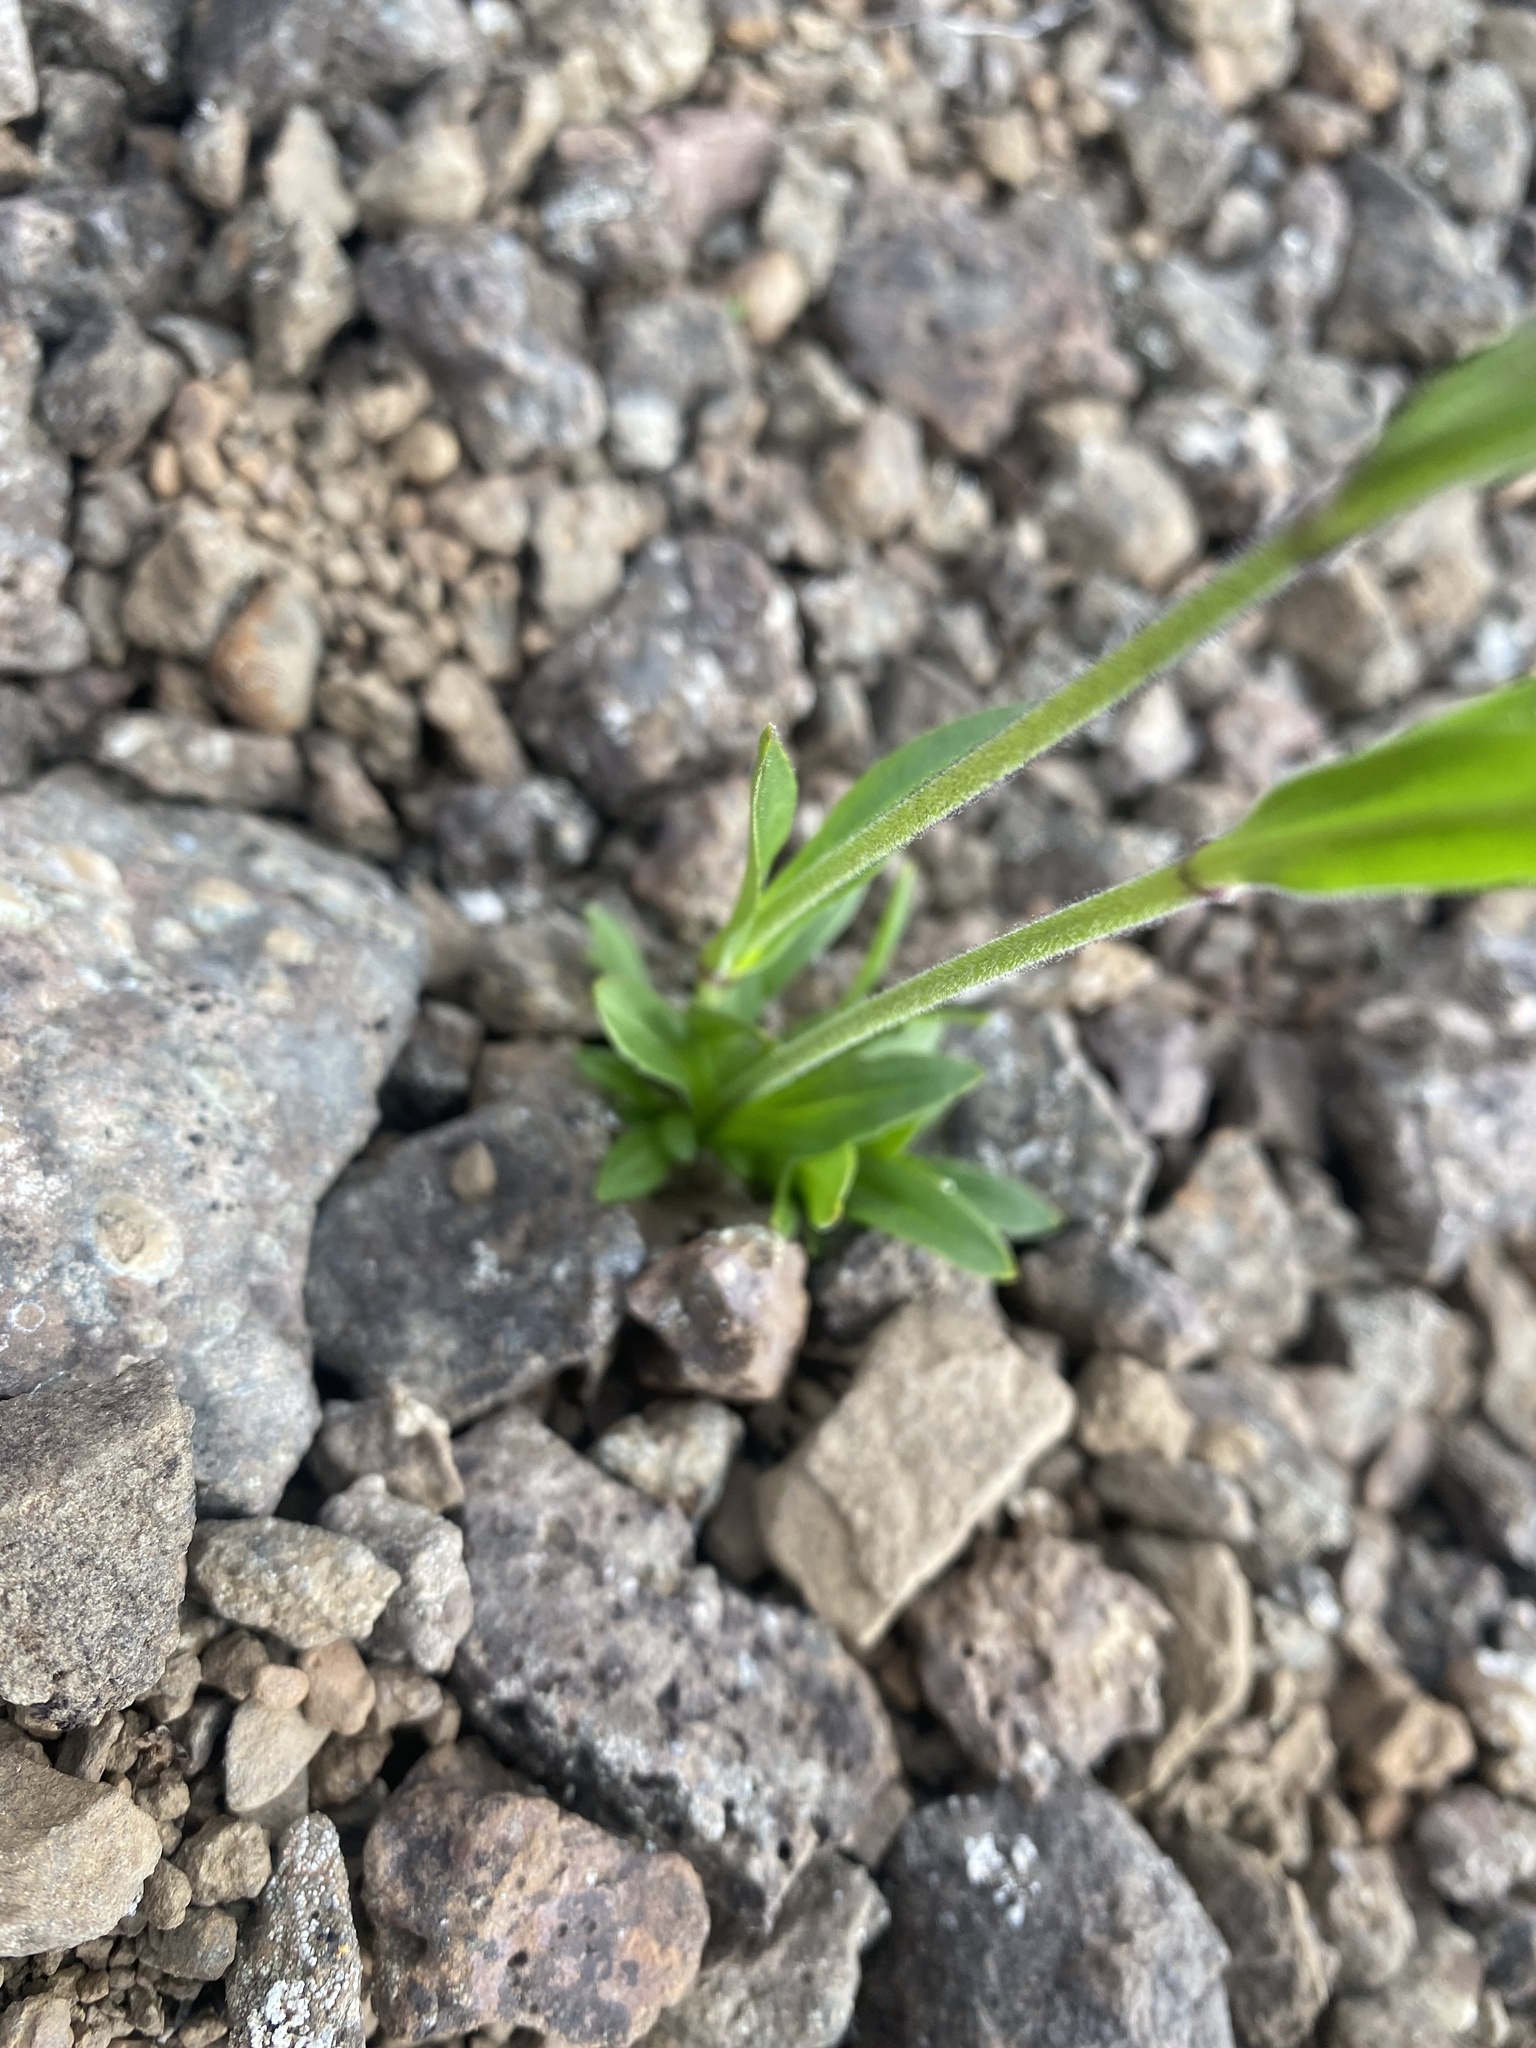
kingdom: Plantae
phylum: Tracheophyta
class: Magnoliopsida
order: Caryophyllales
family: Caryophyllaceae
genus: Silene
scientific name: Silene wahlbergella
